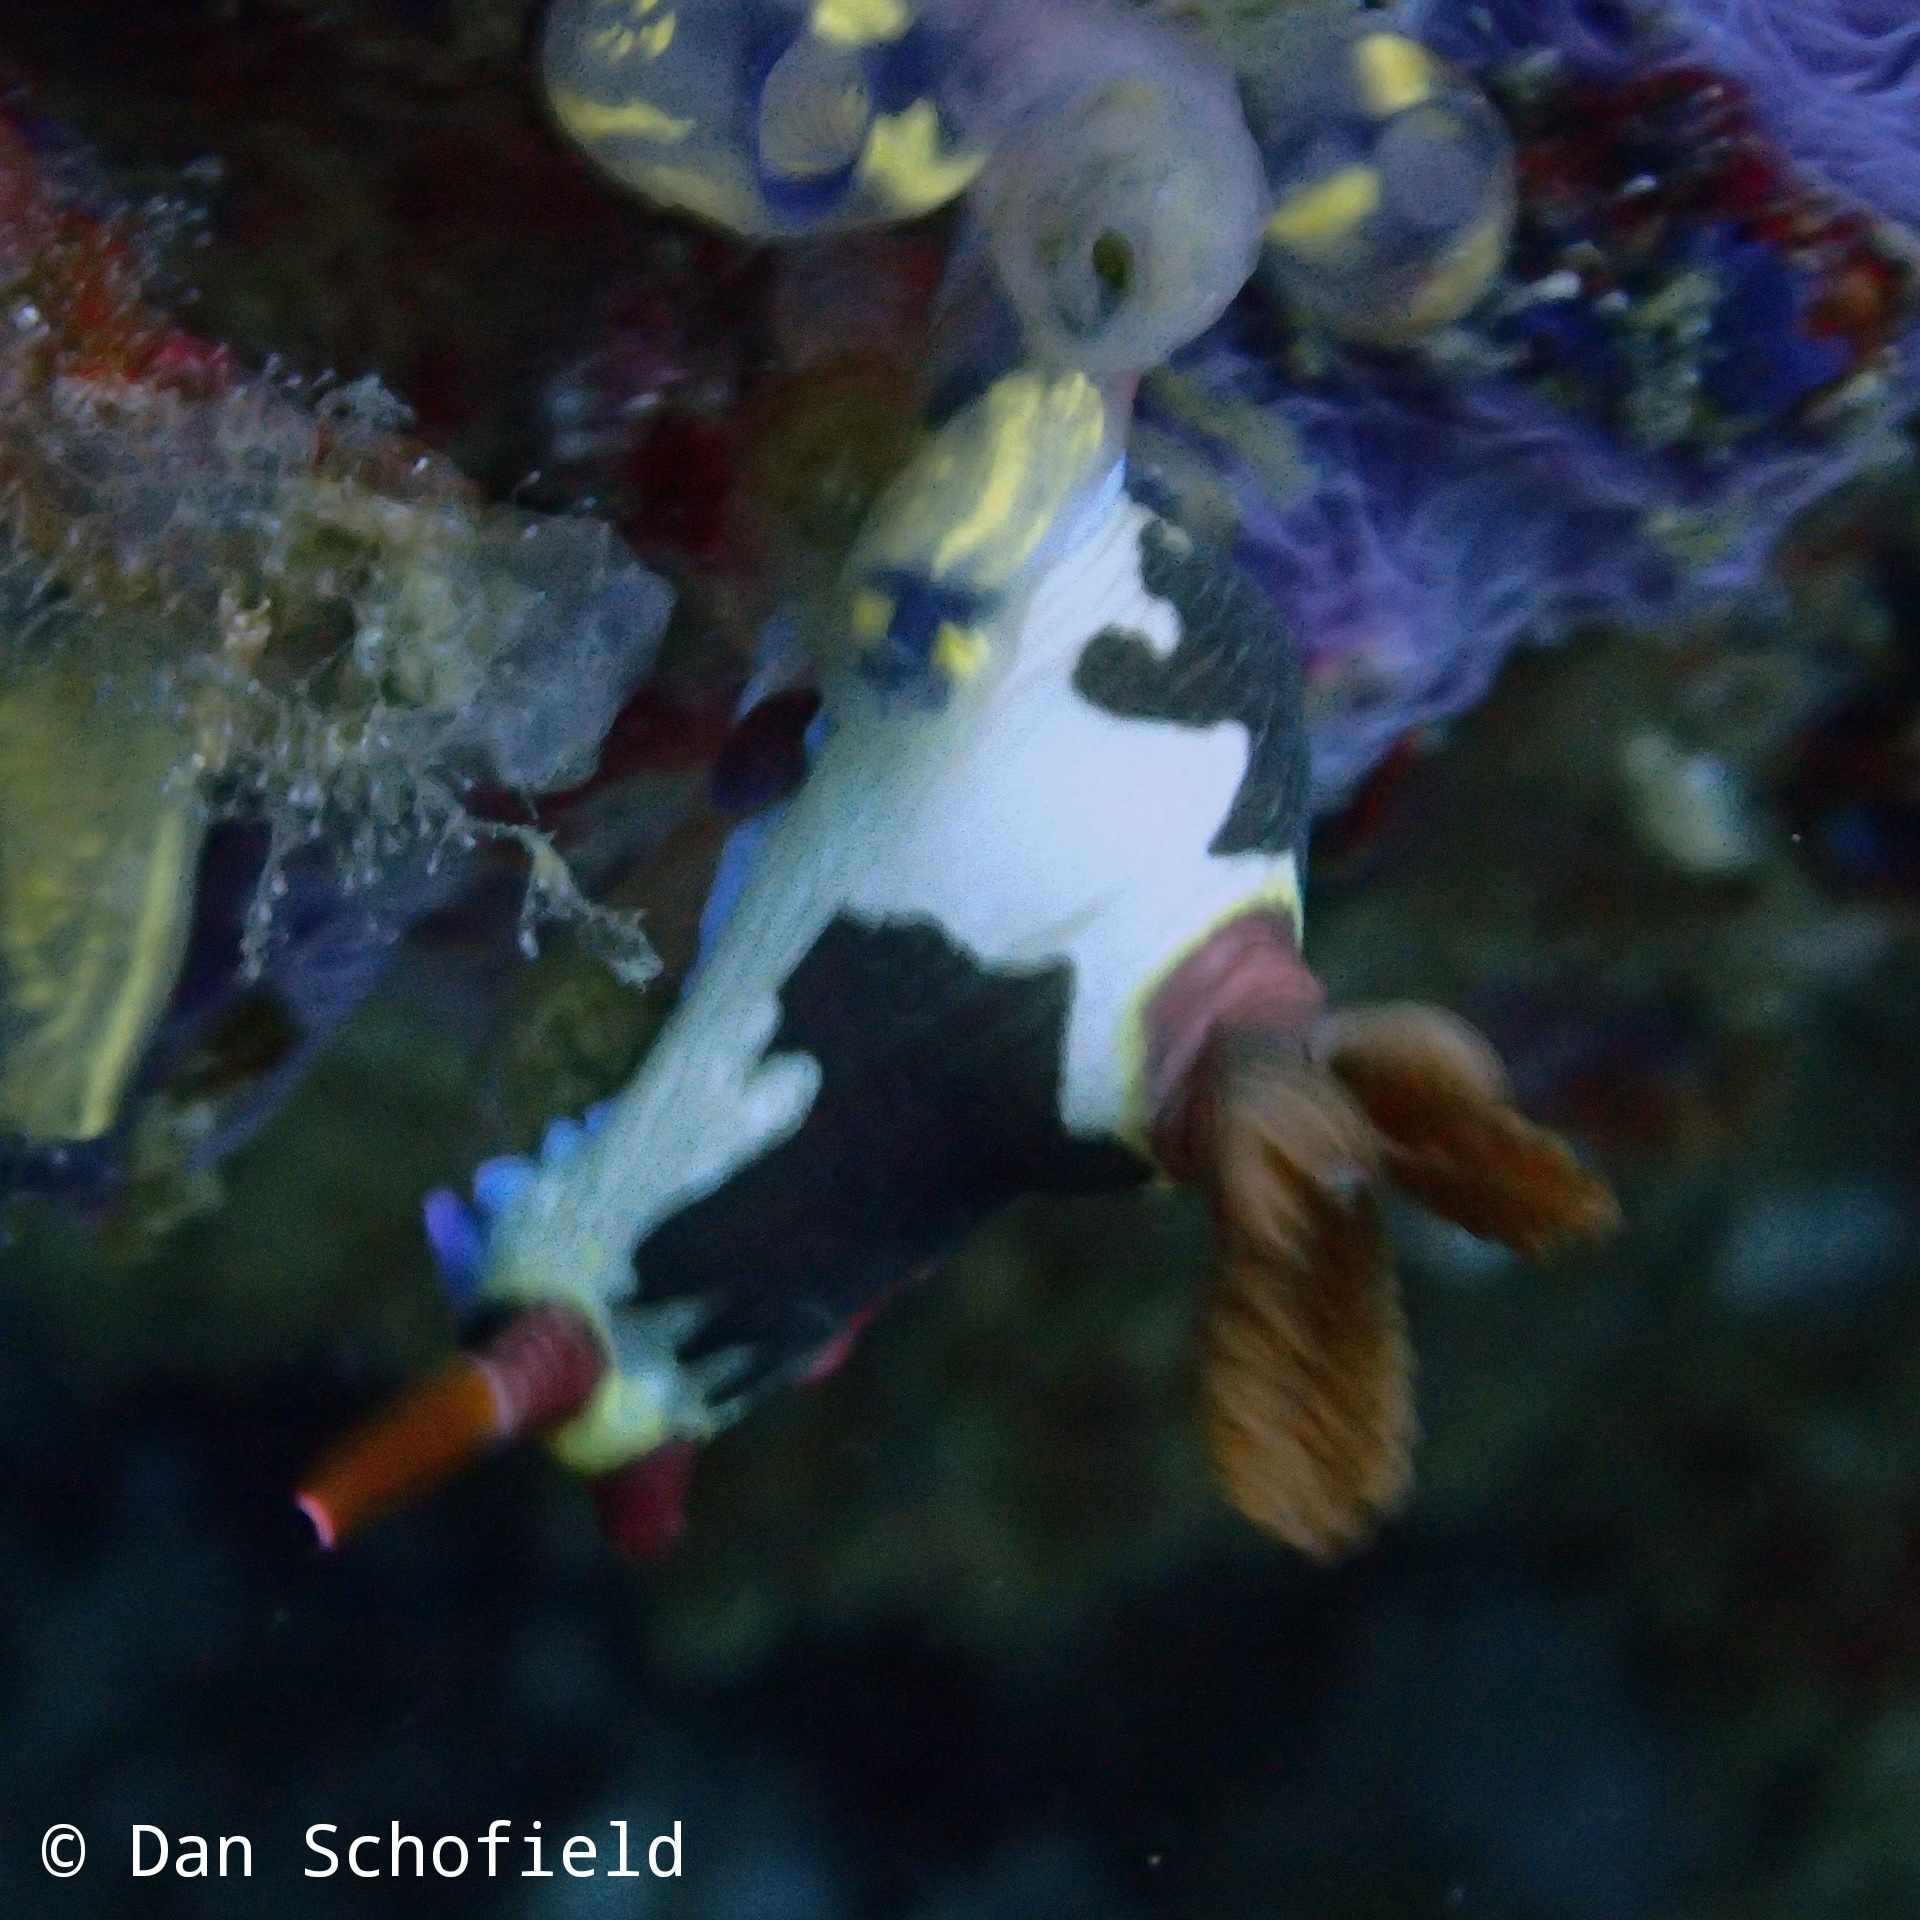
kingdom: Animalia
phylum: Mollusca
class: Gastropoda
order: Nudibranchia
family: Polyceridae
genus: Nembrotha
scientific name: Nembrotha chamberlaini
